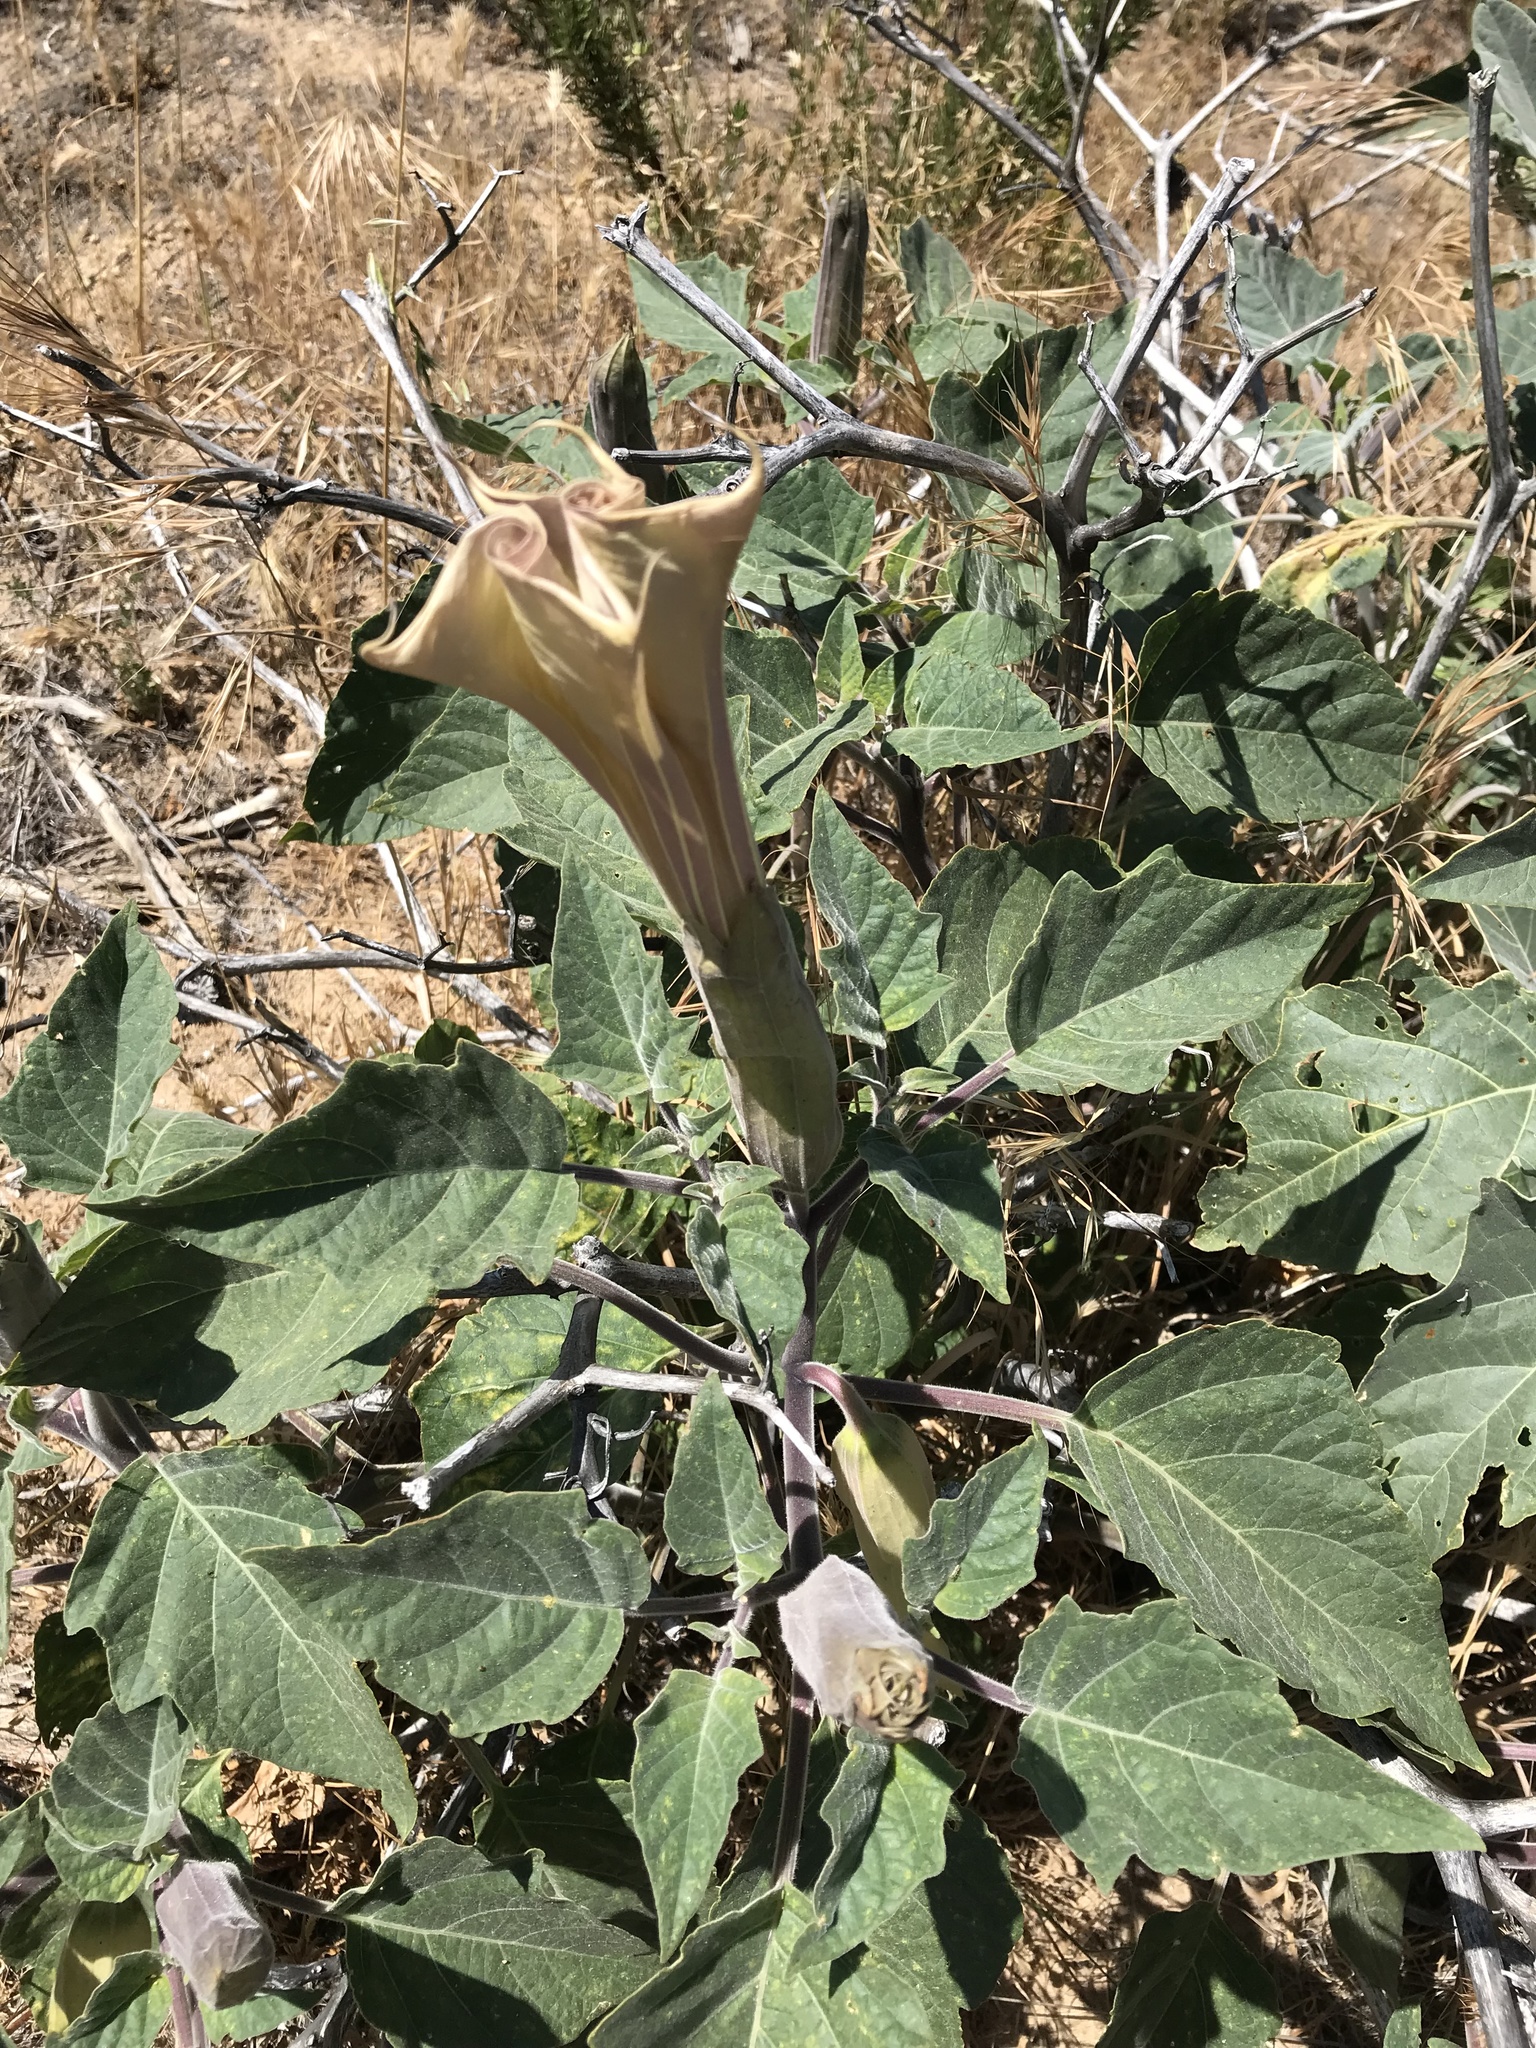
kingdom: Plantae
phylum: Tracheophyta
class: Magnoliopsida
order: Solanales
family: Solanaceae
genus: Datura
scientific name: Datura wrightii
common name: Sacred thorn-apple
